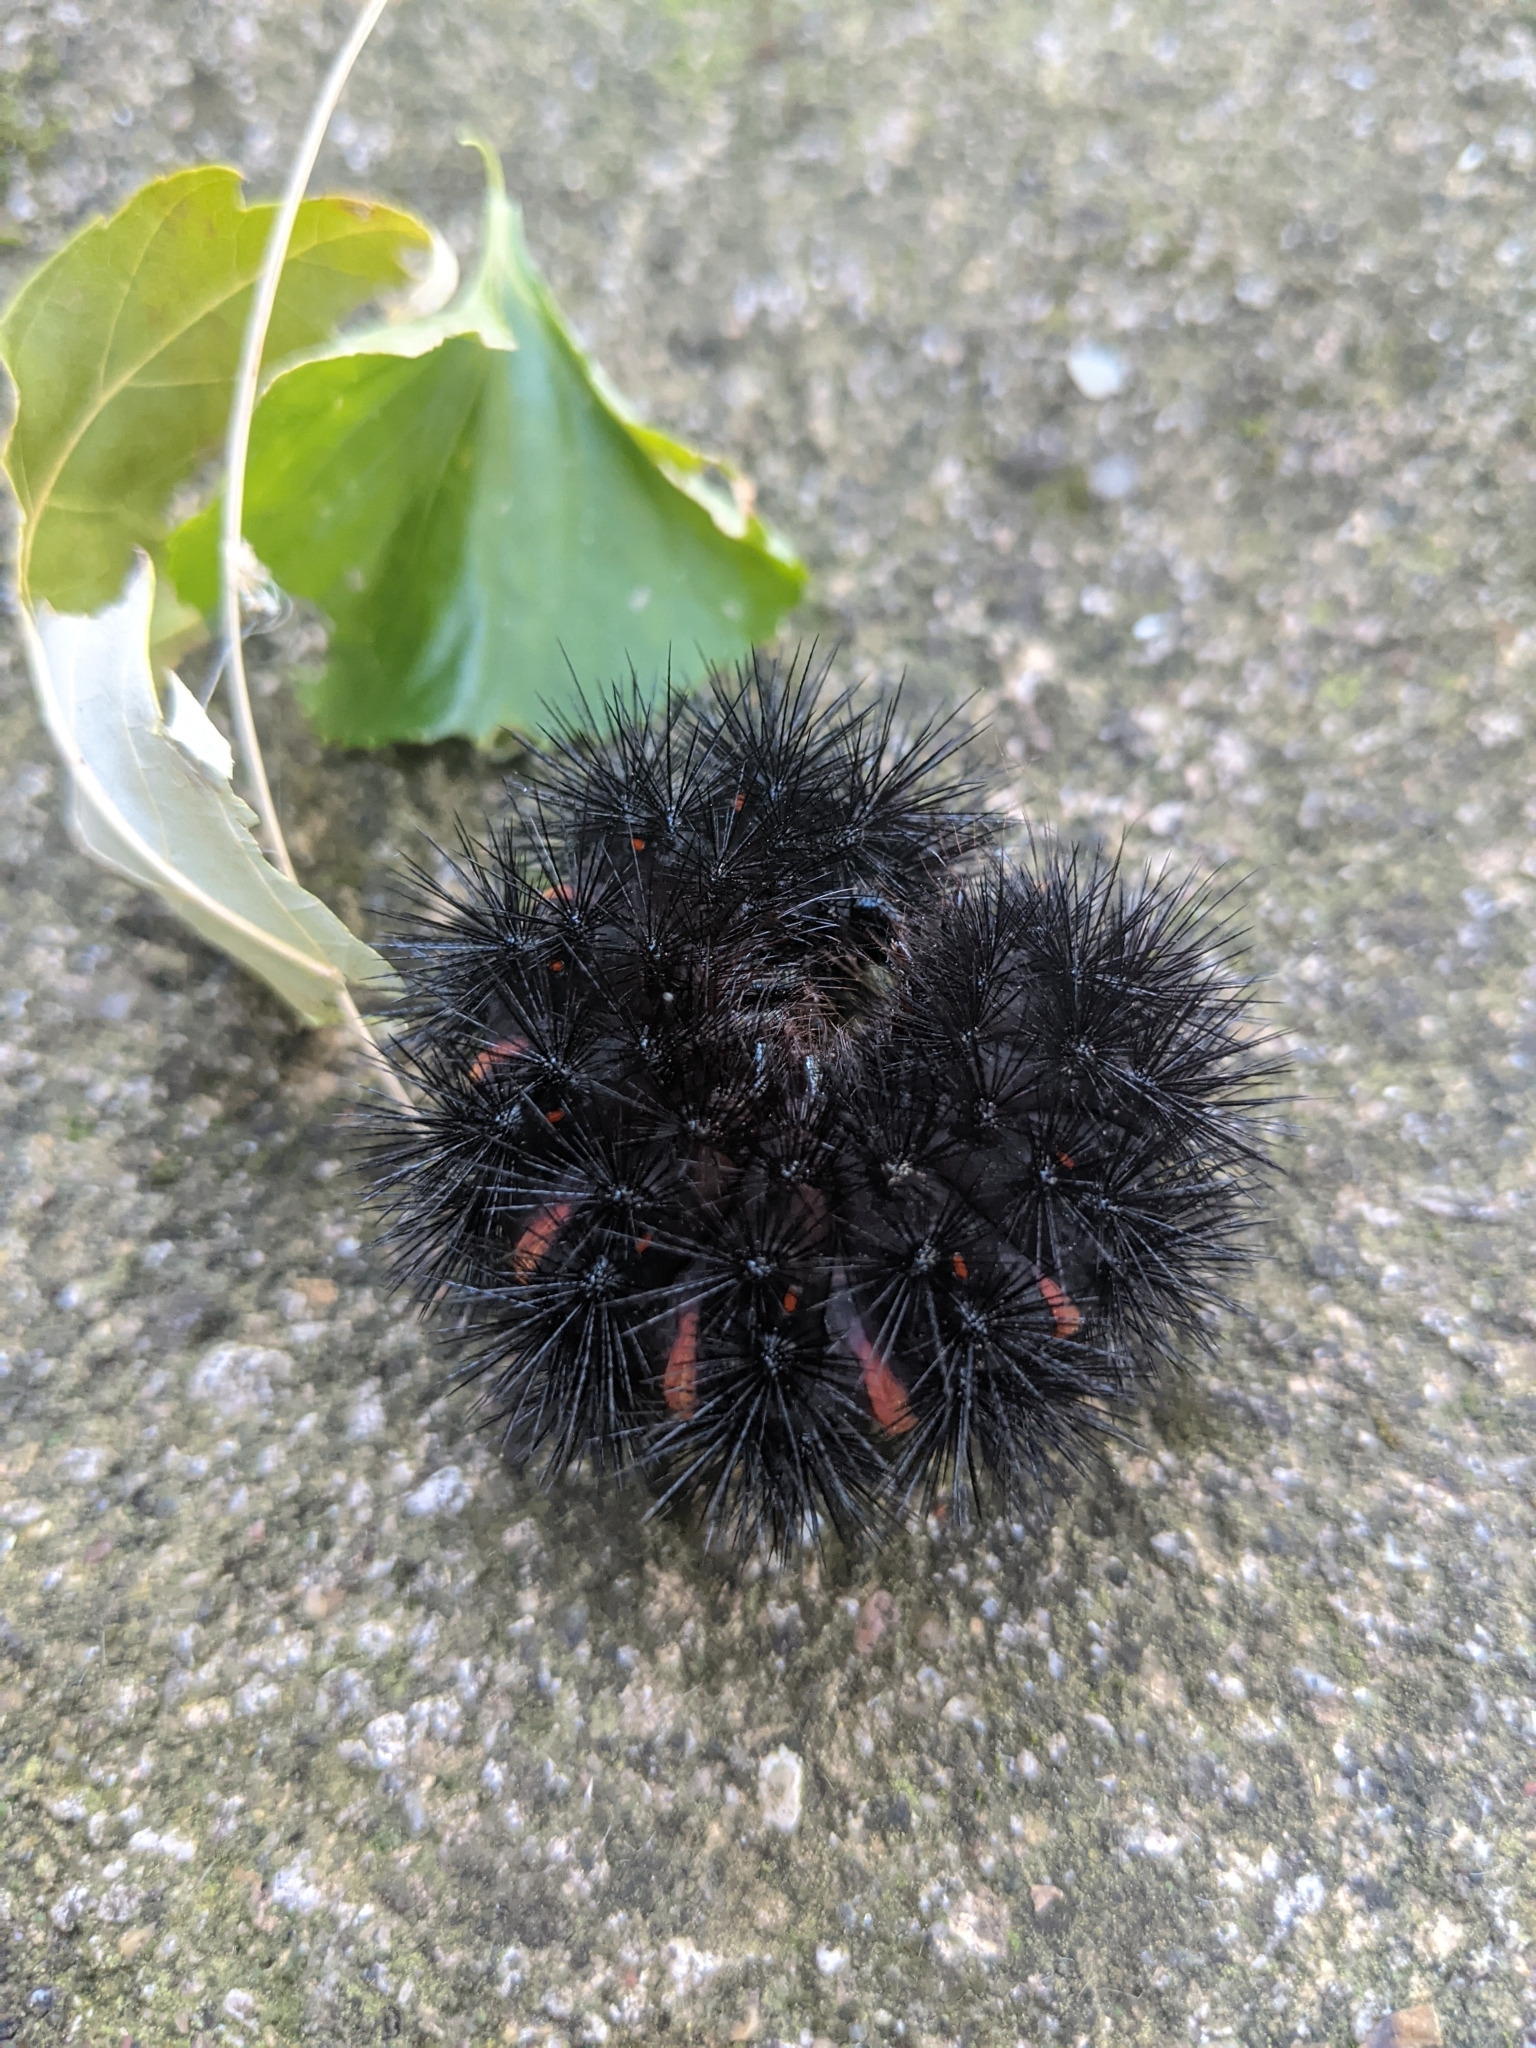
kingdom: Animalia
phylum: Arthropoda
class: Insecta
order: Lepidoptera
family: Erebidae
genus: Hypercompe
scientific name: Hypercompe scribonia
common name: Giant leopard moth
